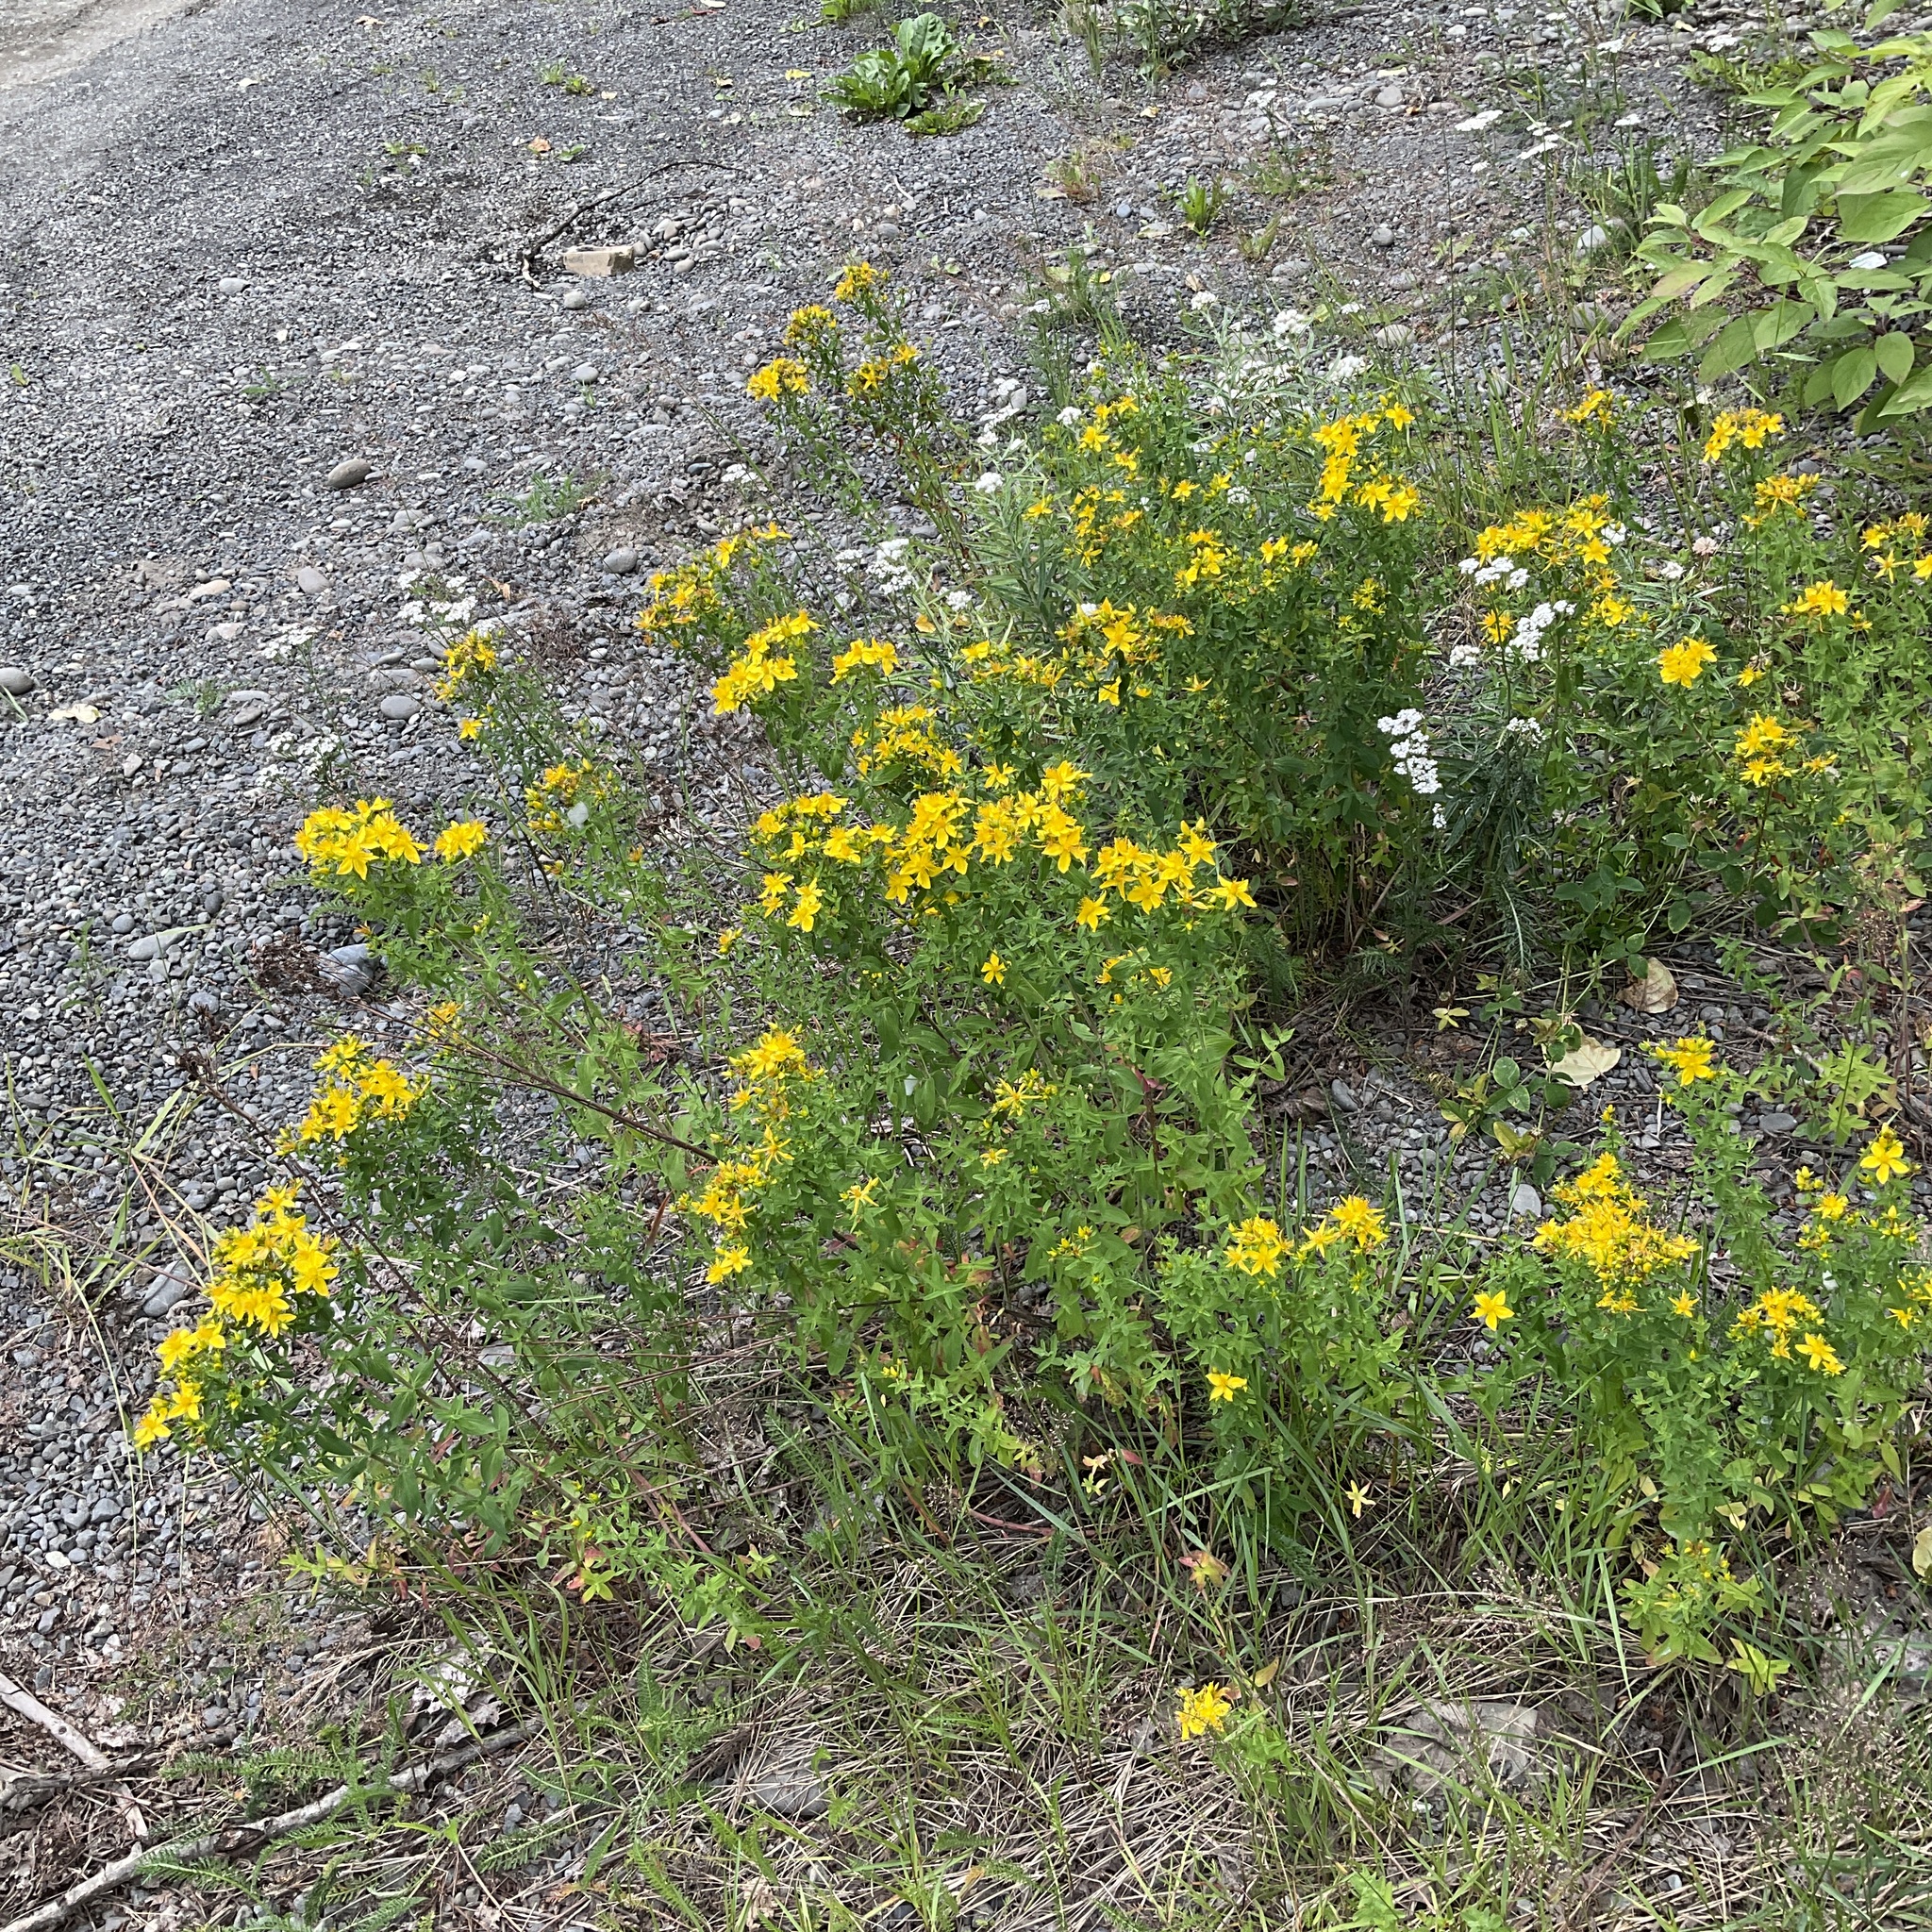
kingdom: Plantae
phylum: Tracheophyta
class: Magnoliopsida
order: Malpighiales
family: Hypericaceae
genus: Hypericum
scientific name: Hypericum perforatum
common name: Common st. johnswort
